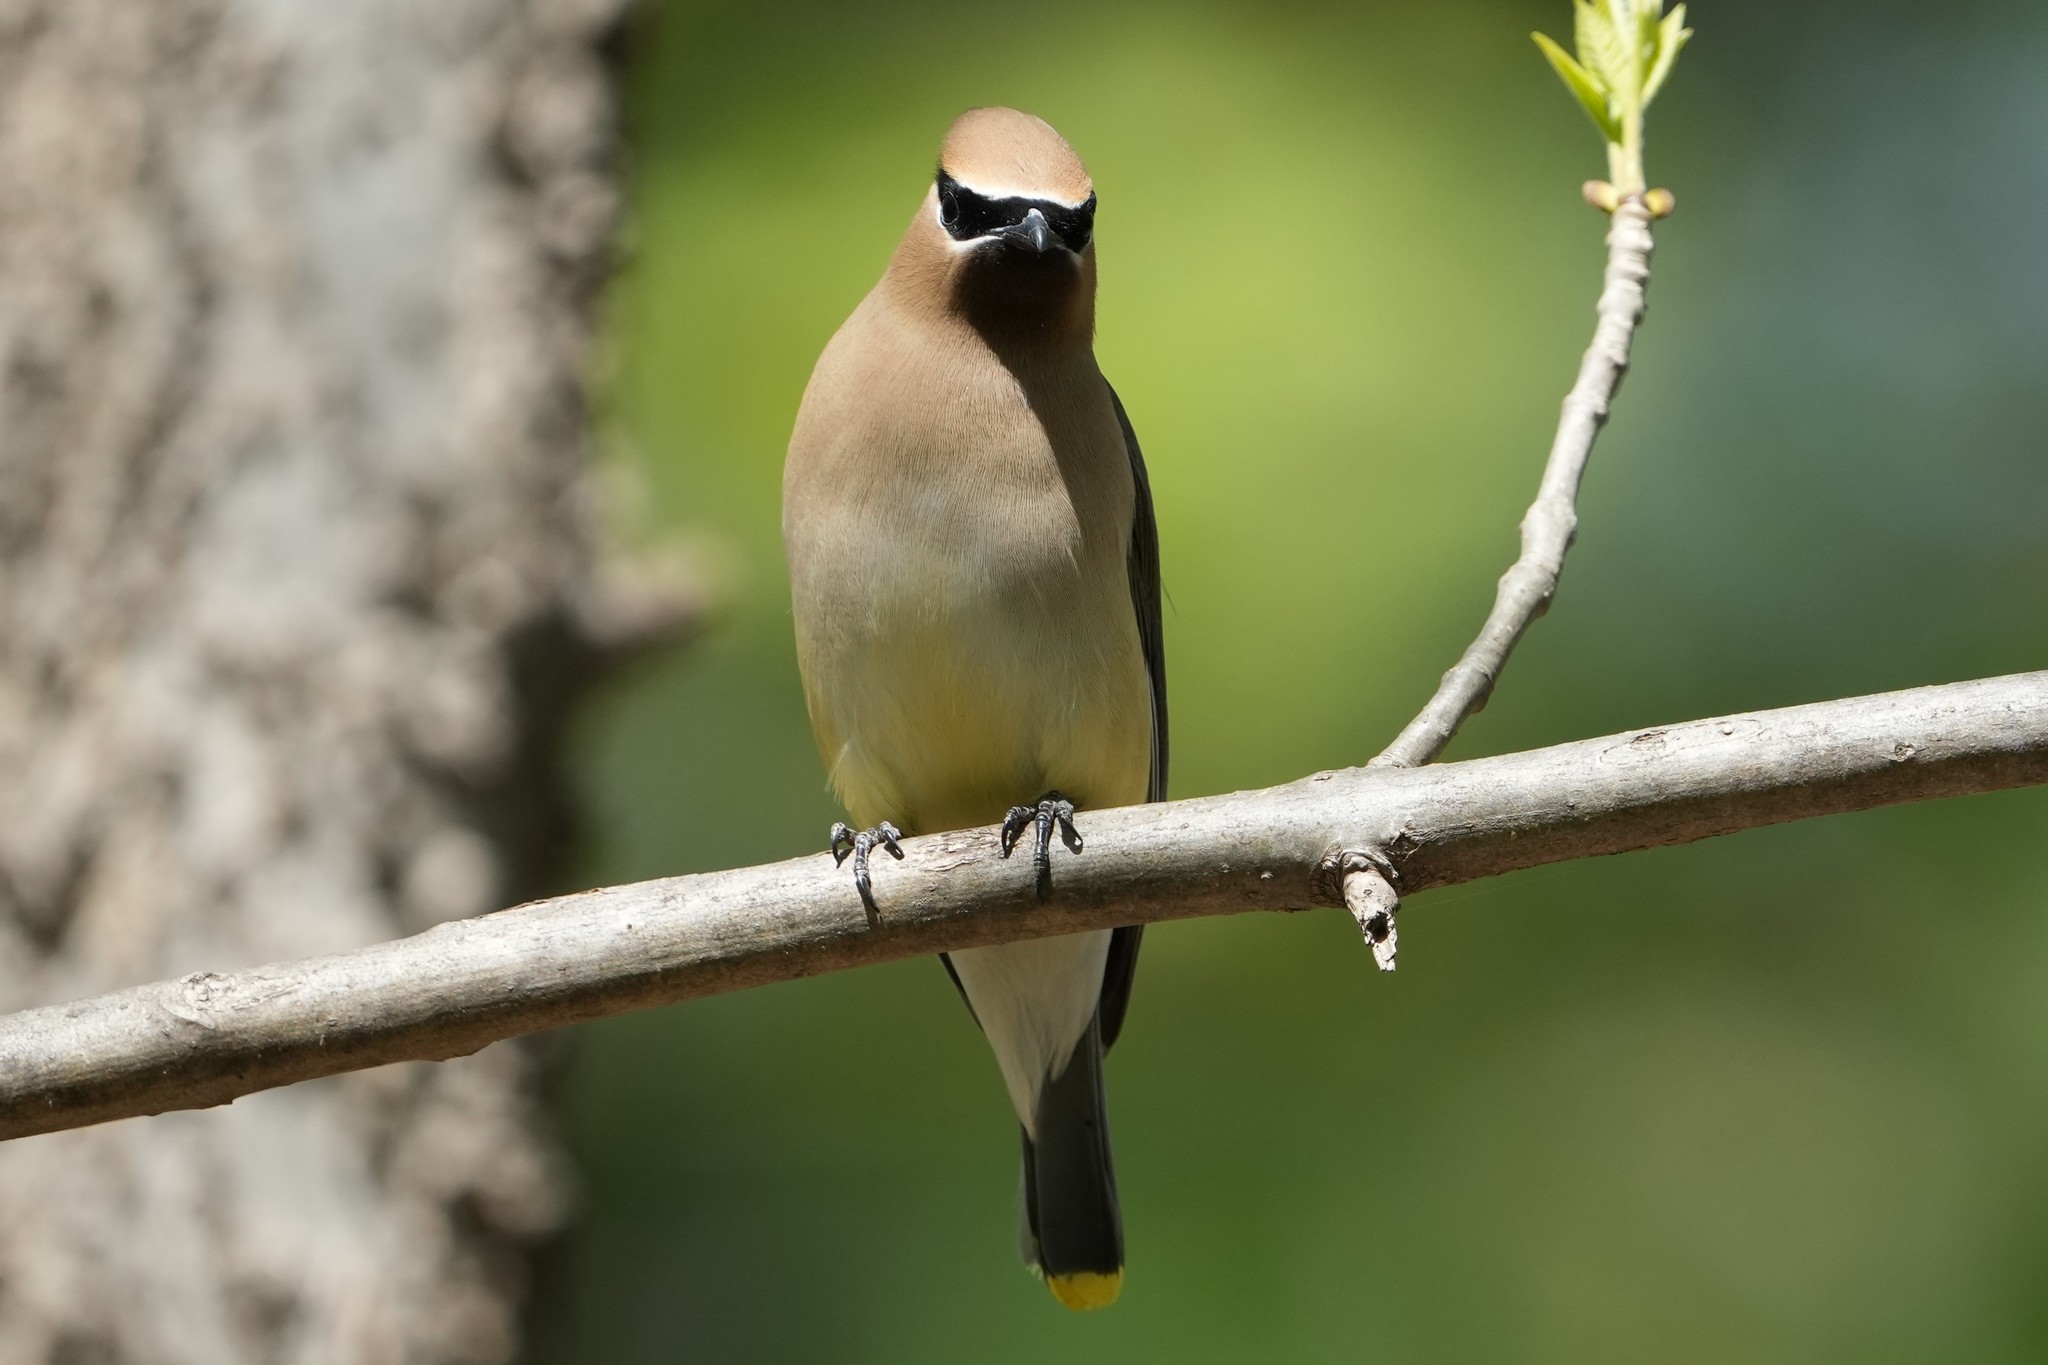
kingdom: Animalia
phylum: Chordata
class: Aves
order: Passeriformes
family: Bombycillidae
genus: Bombycilla
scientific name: Bombycilla cedrorum
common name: Cedar waxwing
